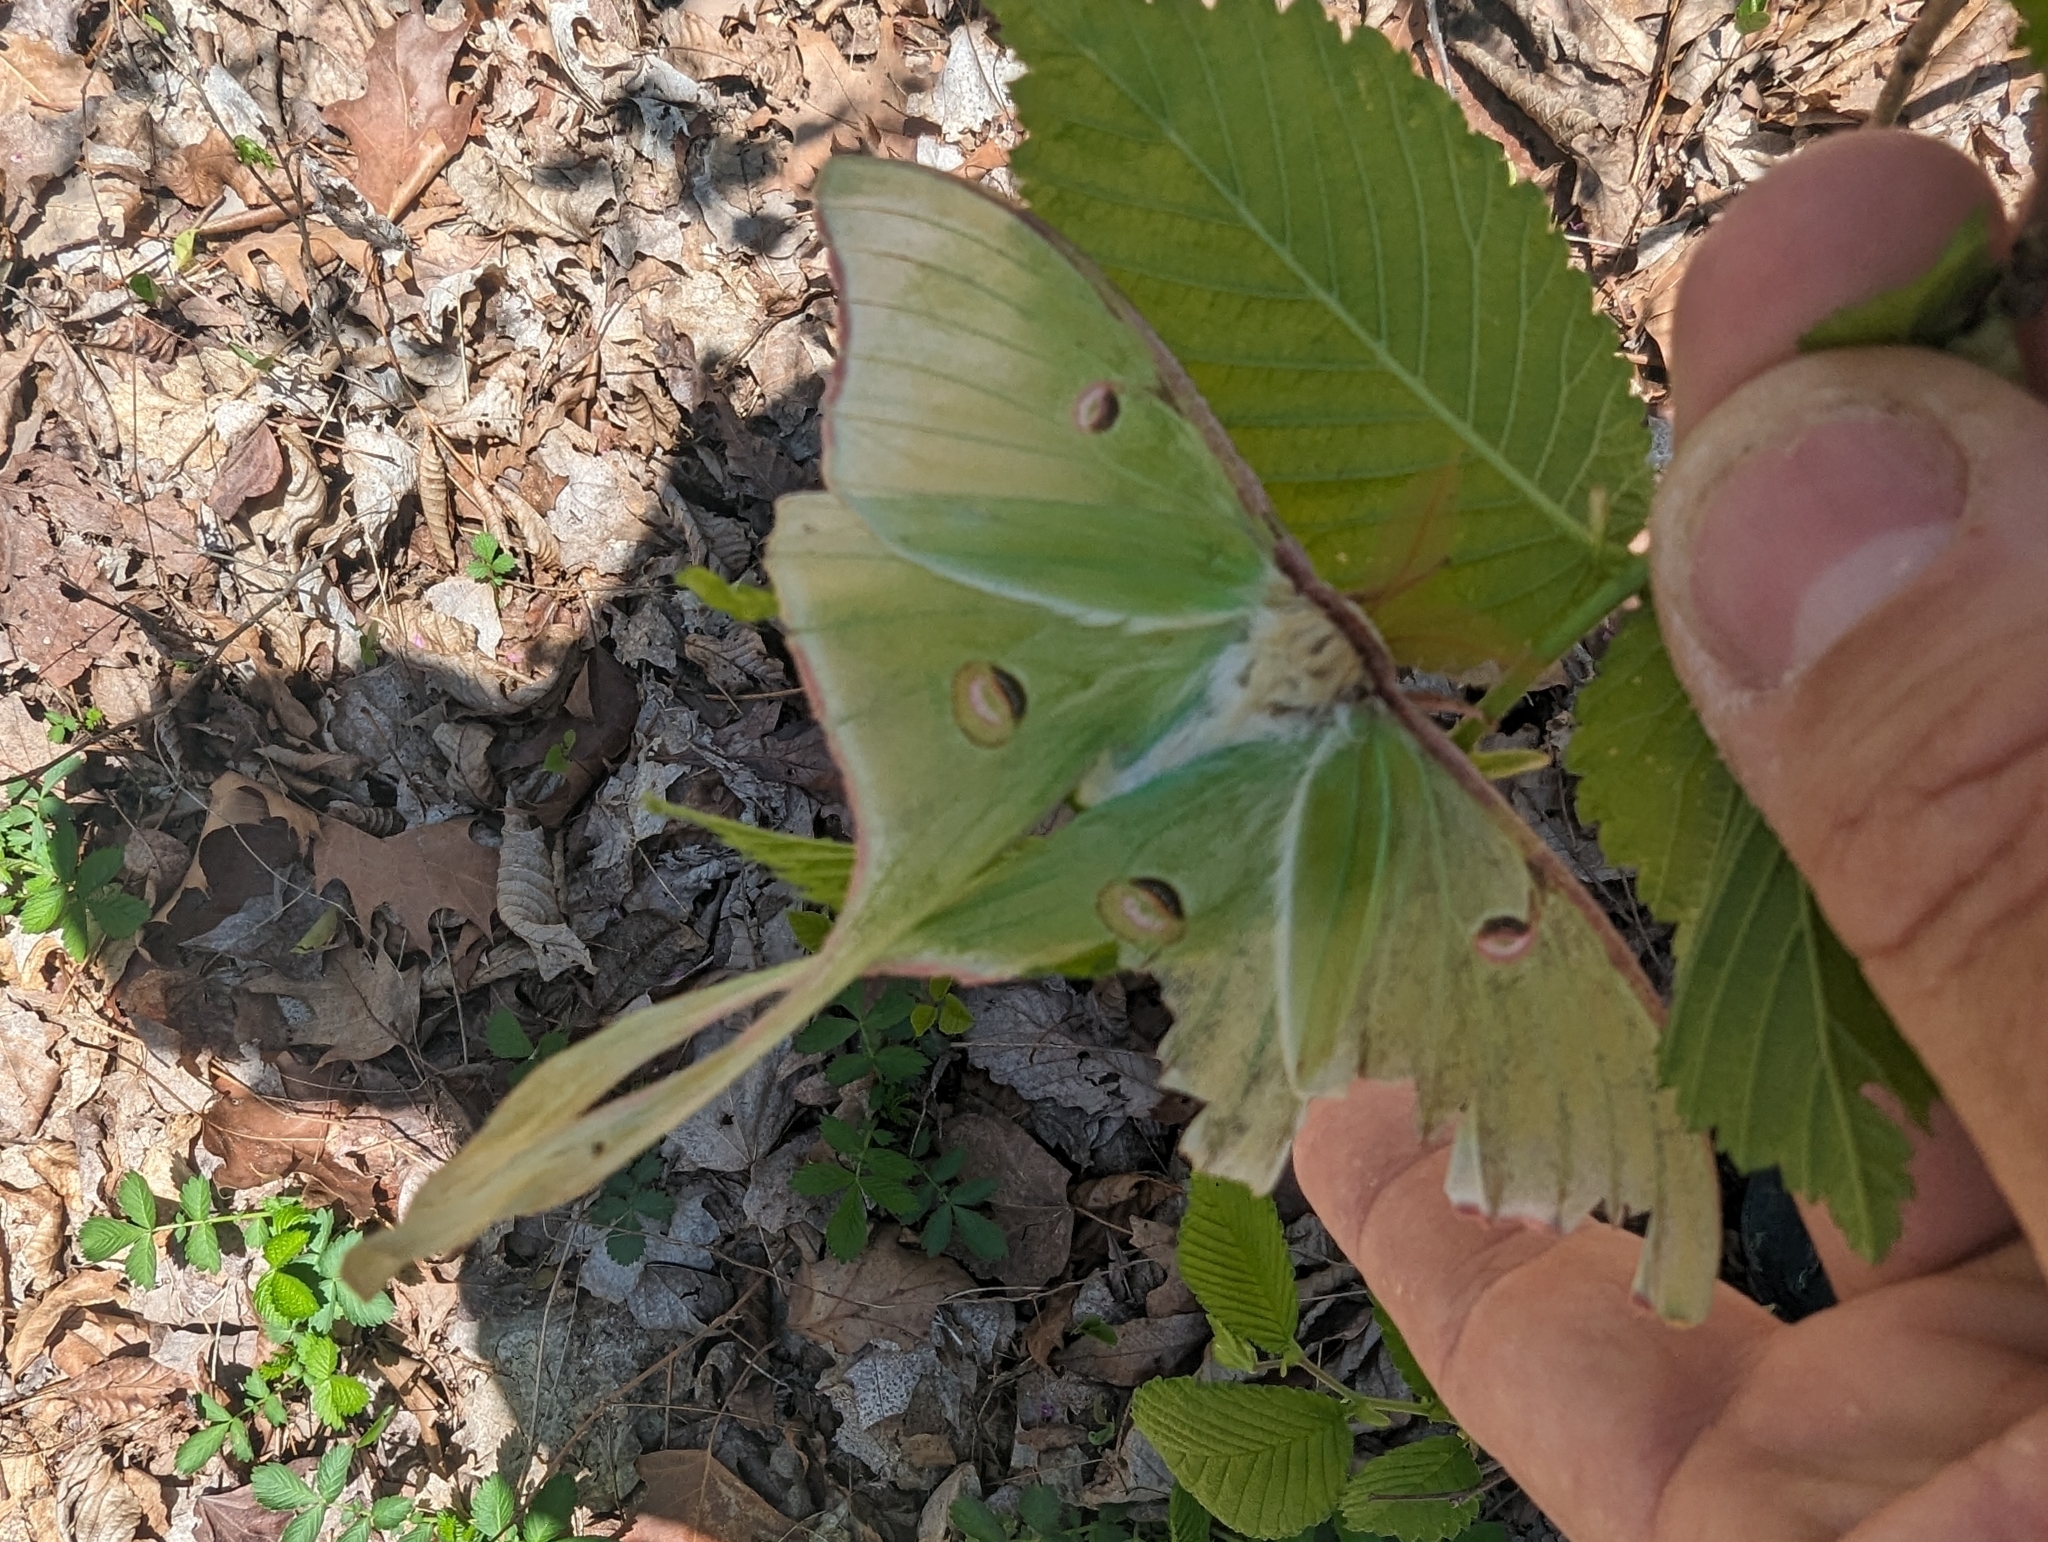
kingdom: Animalia
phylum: Arthropoda
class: Insecta
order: Lepidoptera
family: Saturniidae
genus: Actias
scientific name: Actias luna
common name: Luna moth
